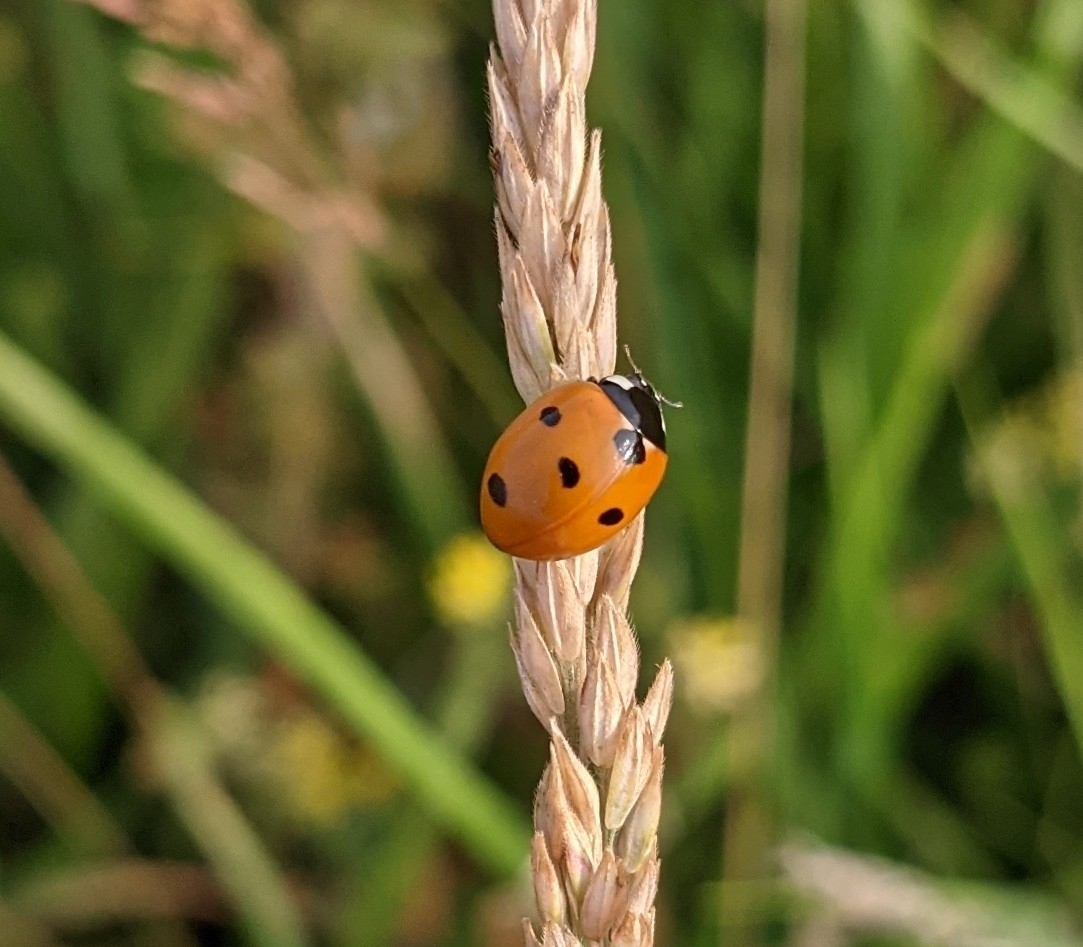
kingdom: Animalia
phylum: Arthropoda
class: Insecta
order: Coleoptera
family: Coccinellidae
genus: Coccinella
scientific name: Coccinella septempunctata
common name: Sevenspotted lady beetle
